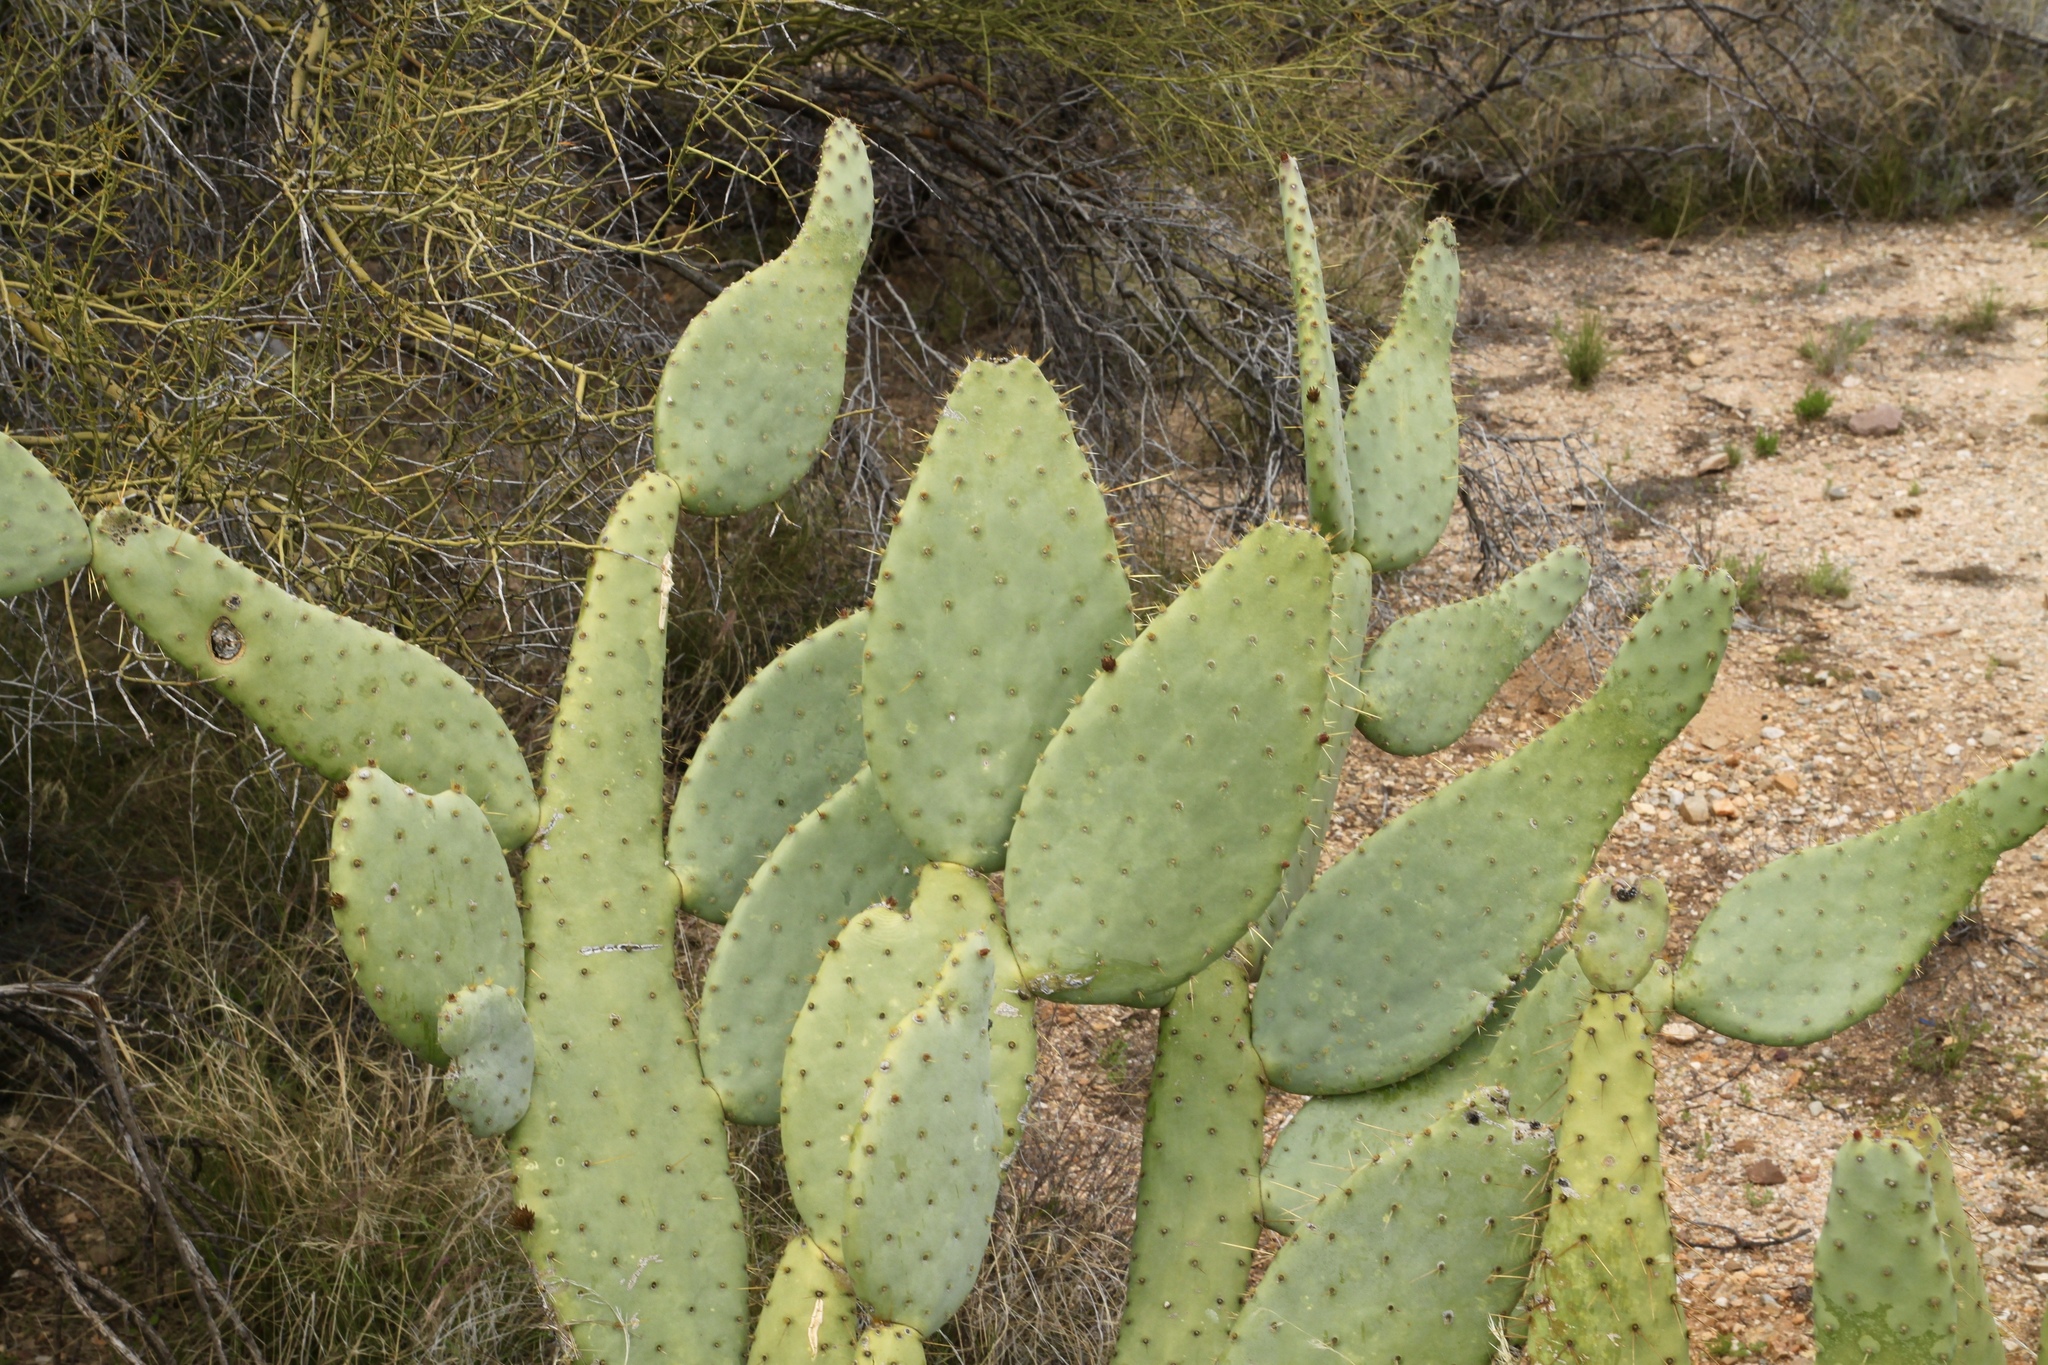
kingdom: Plantae
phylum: Tracheophyta
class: Magnoliopsida
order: Caryophyllales
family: Cactaceae
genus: Opuntia
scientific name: Opuntia engelmannii
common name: Cactus-apple
